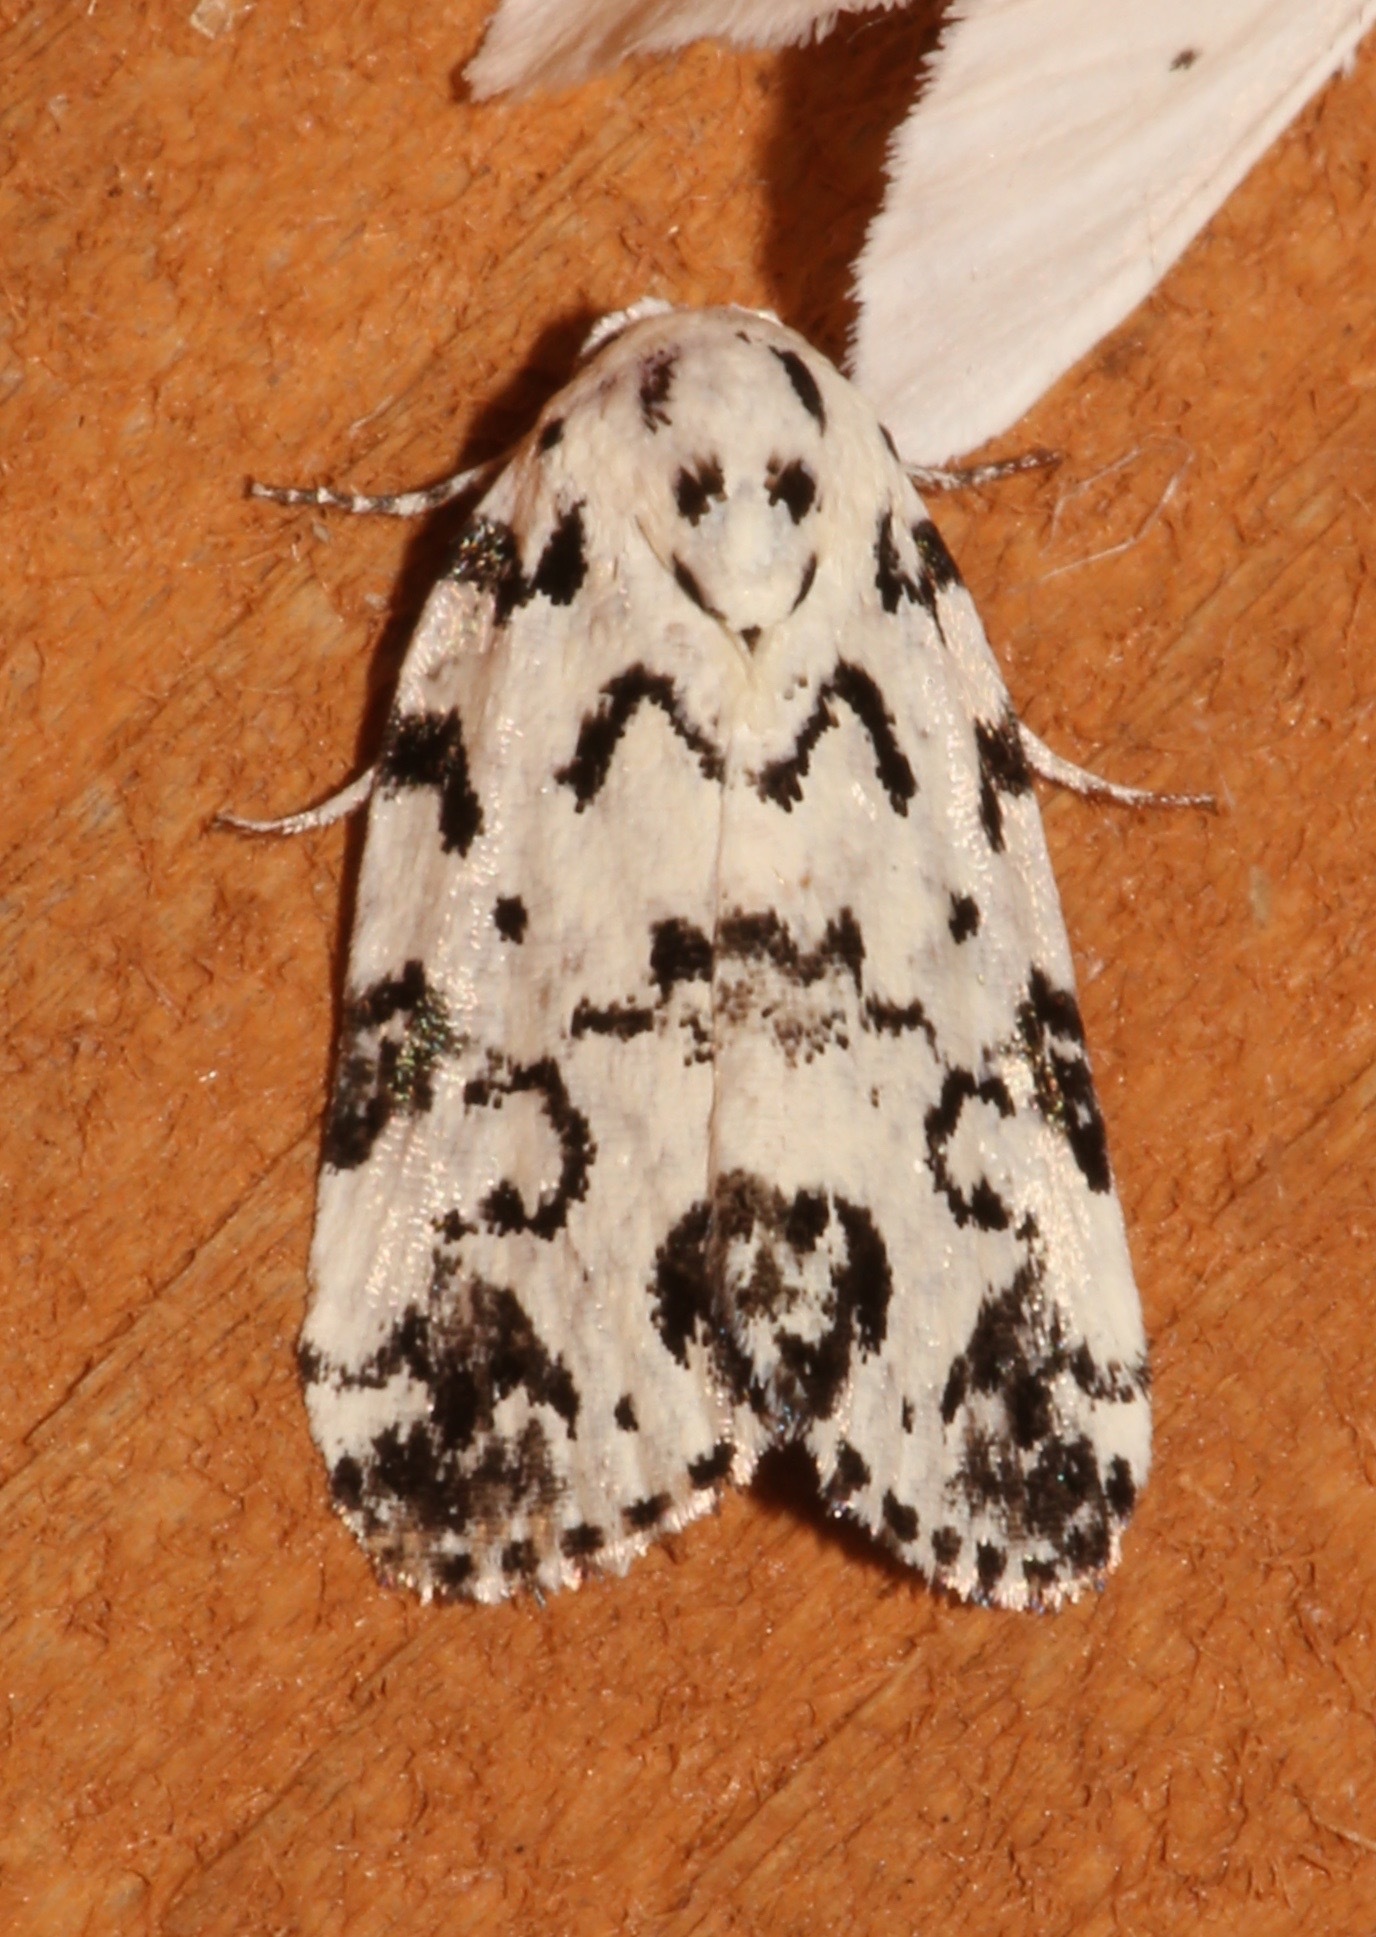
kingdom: Animalia
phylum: Arthropoda
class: Insecta
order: Lepidoptera
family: Noctuidae
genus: Polygrammate
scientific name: Polygrammate hebraeicum
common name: Hebrew moth
